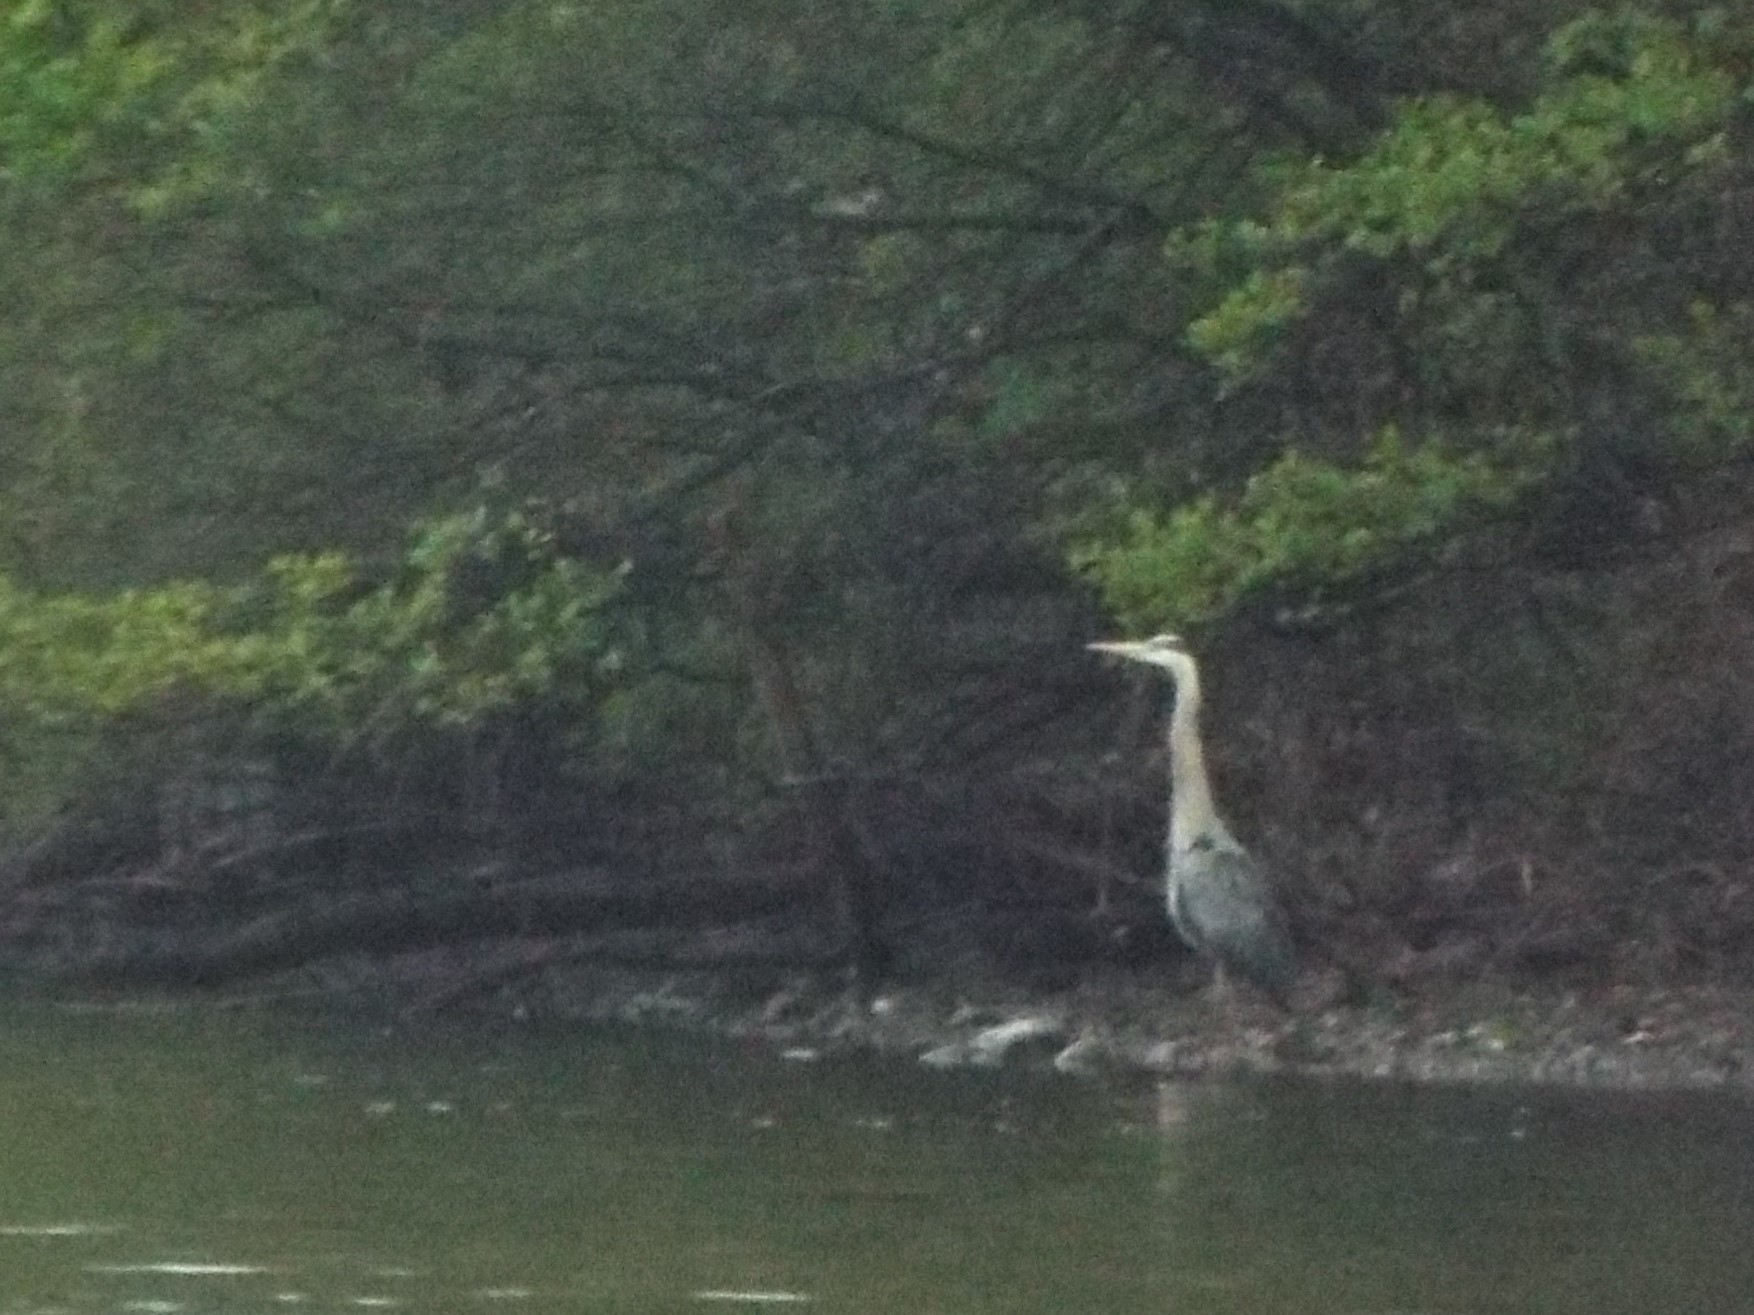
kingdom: Animalia
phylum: Chordata
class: Aves
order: Pelecaniformes
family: Ardeidae
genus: Ardea
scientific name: Ardea herodias
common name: Great blue heron
